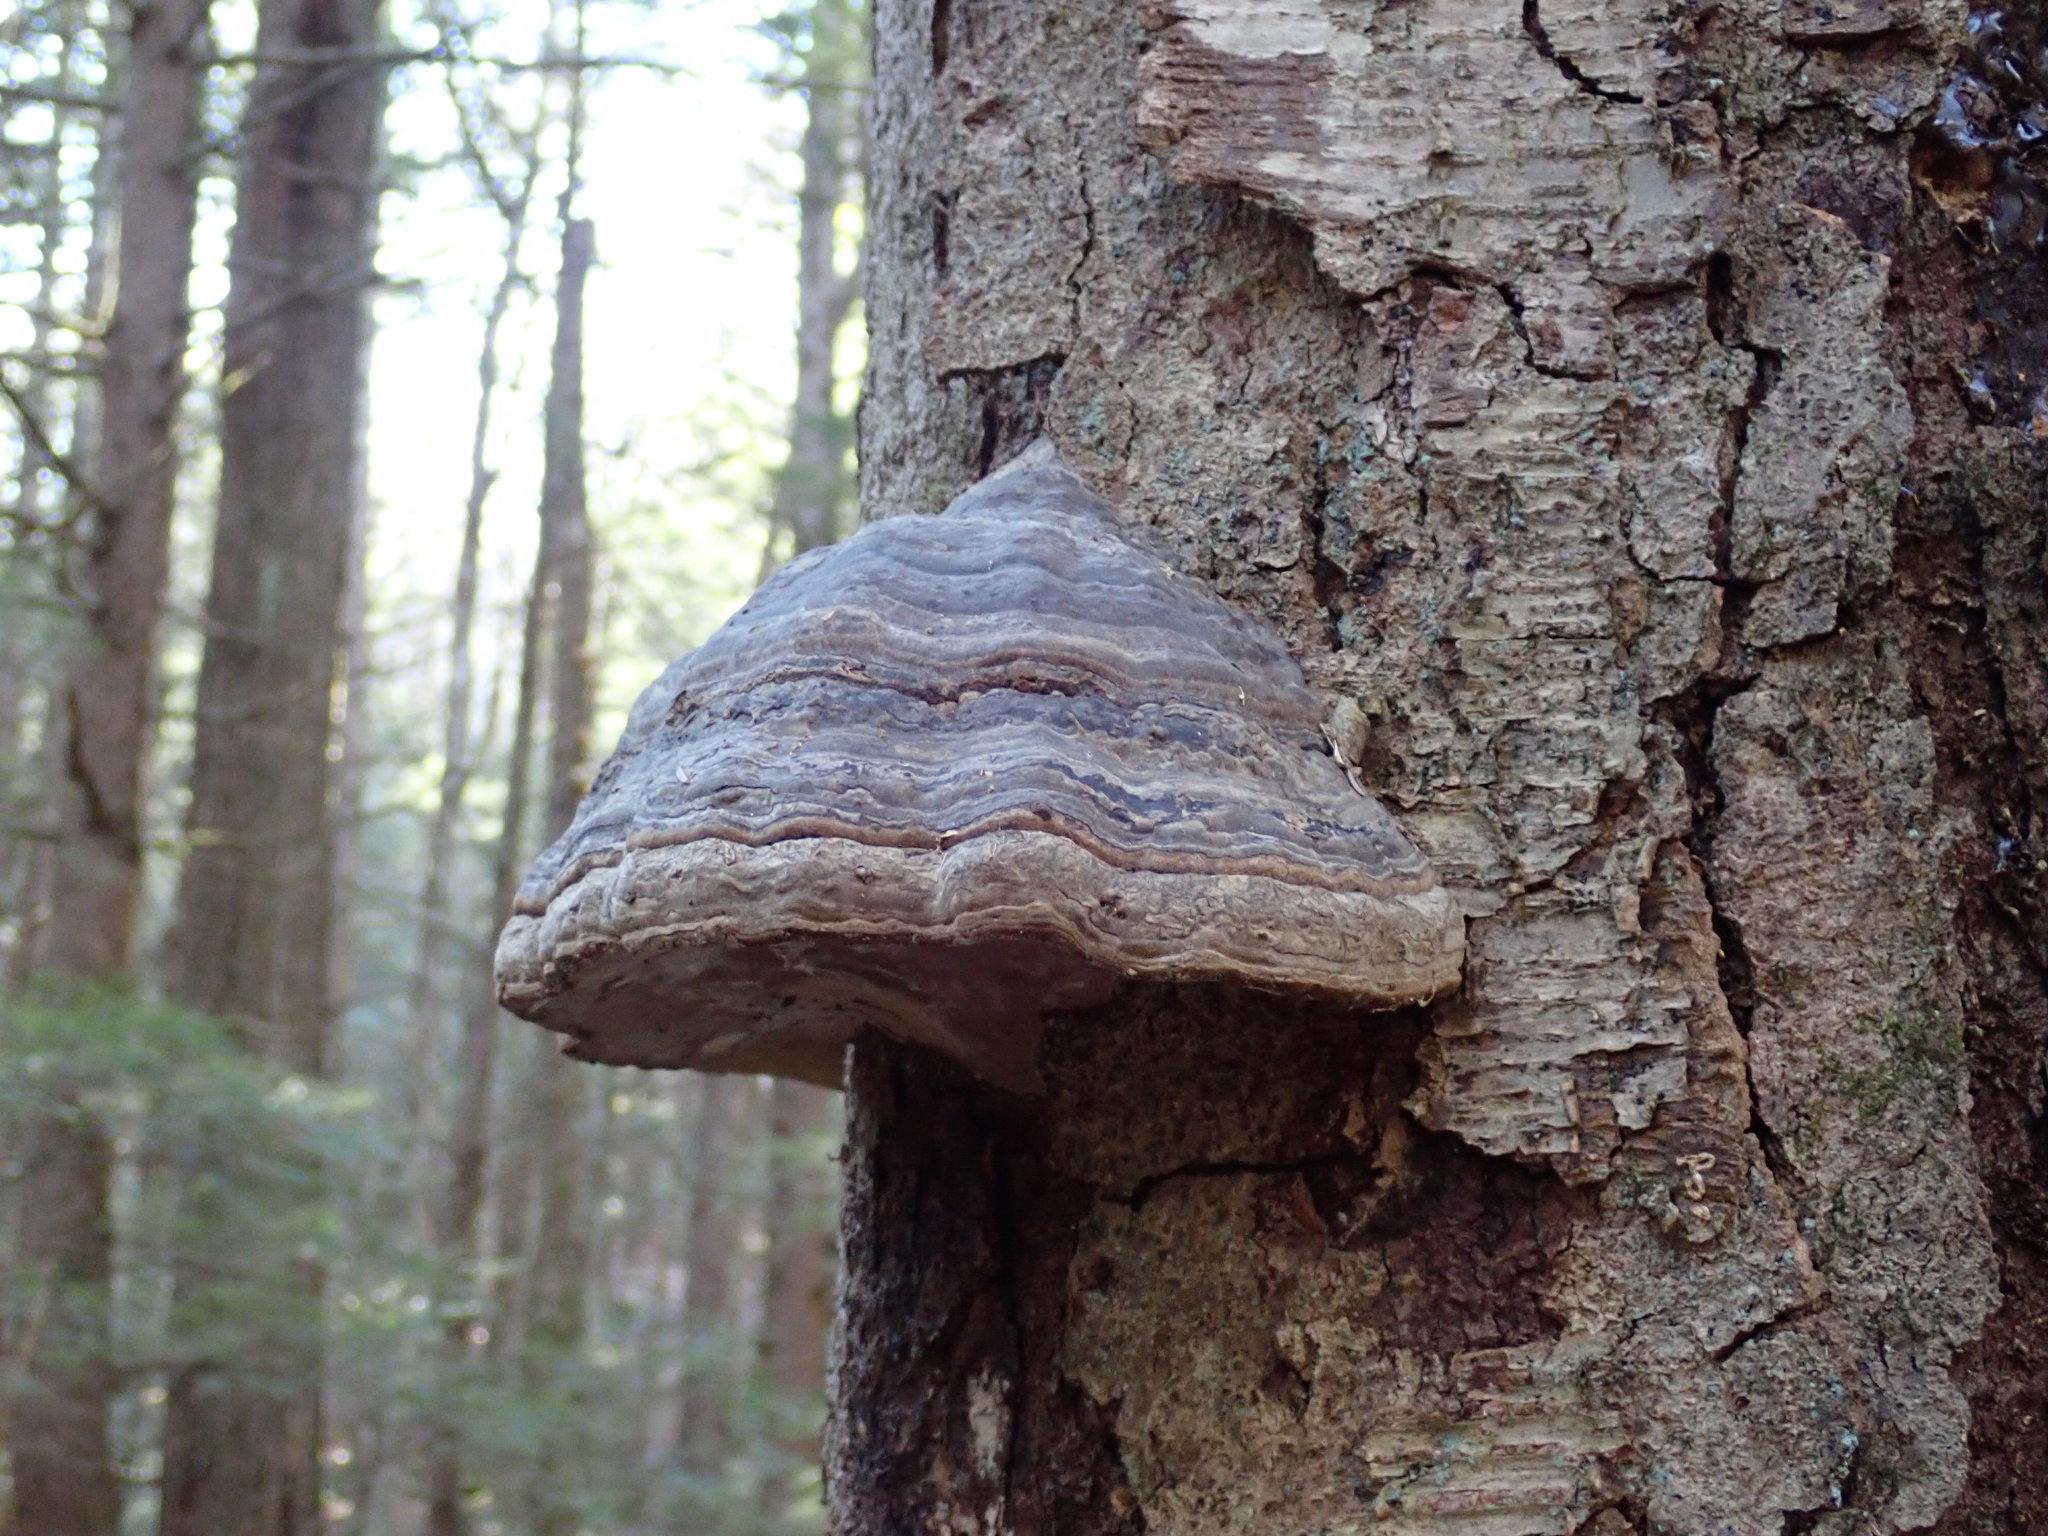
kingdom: Fungi
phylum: Basidiomycota
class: Agaricomycetes
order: Polyporales
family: Polyporaceae
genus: Fomes
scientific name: Fomes fomentarius
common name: Hoof fungus
